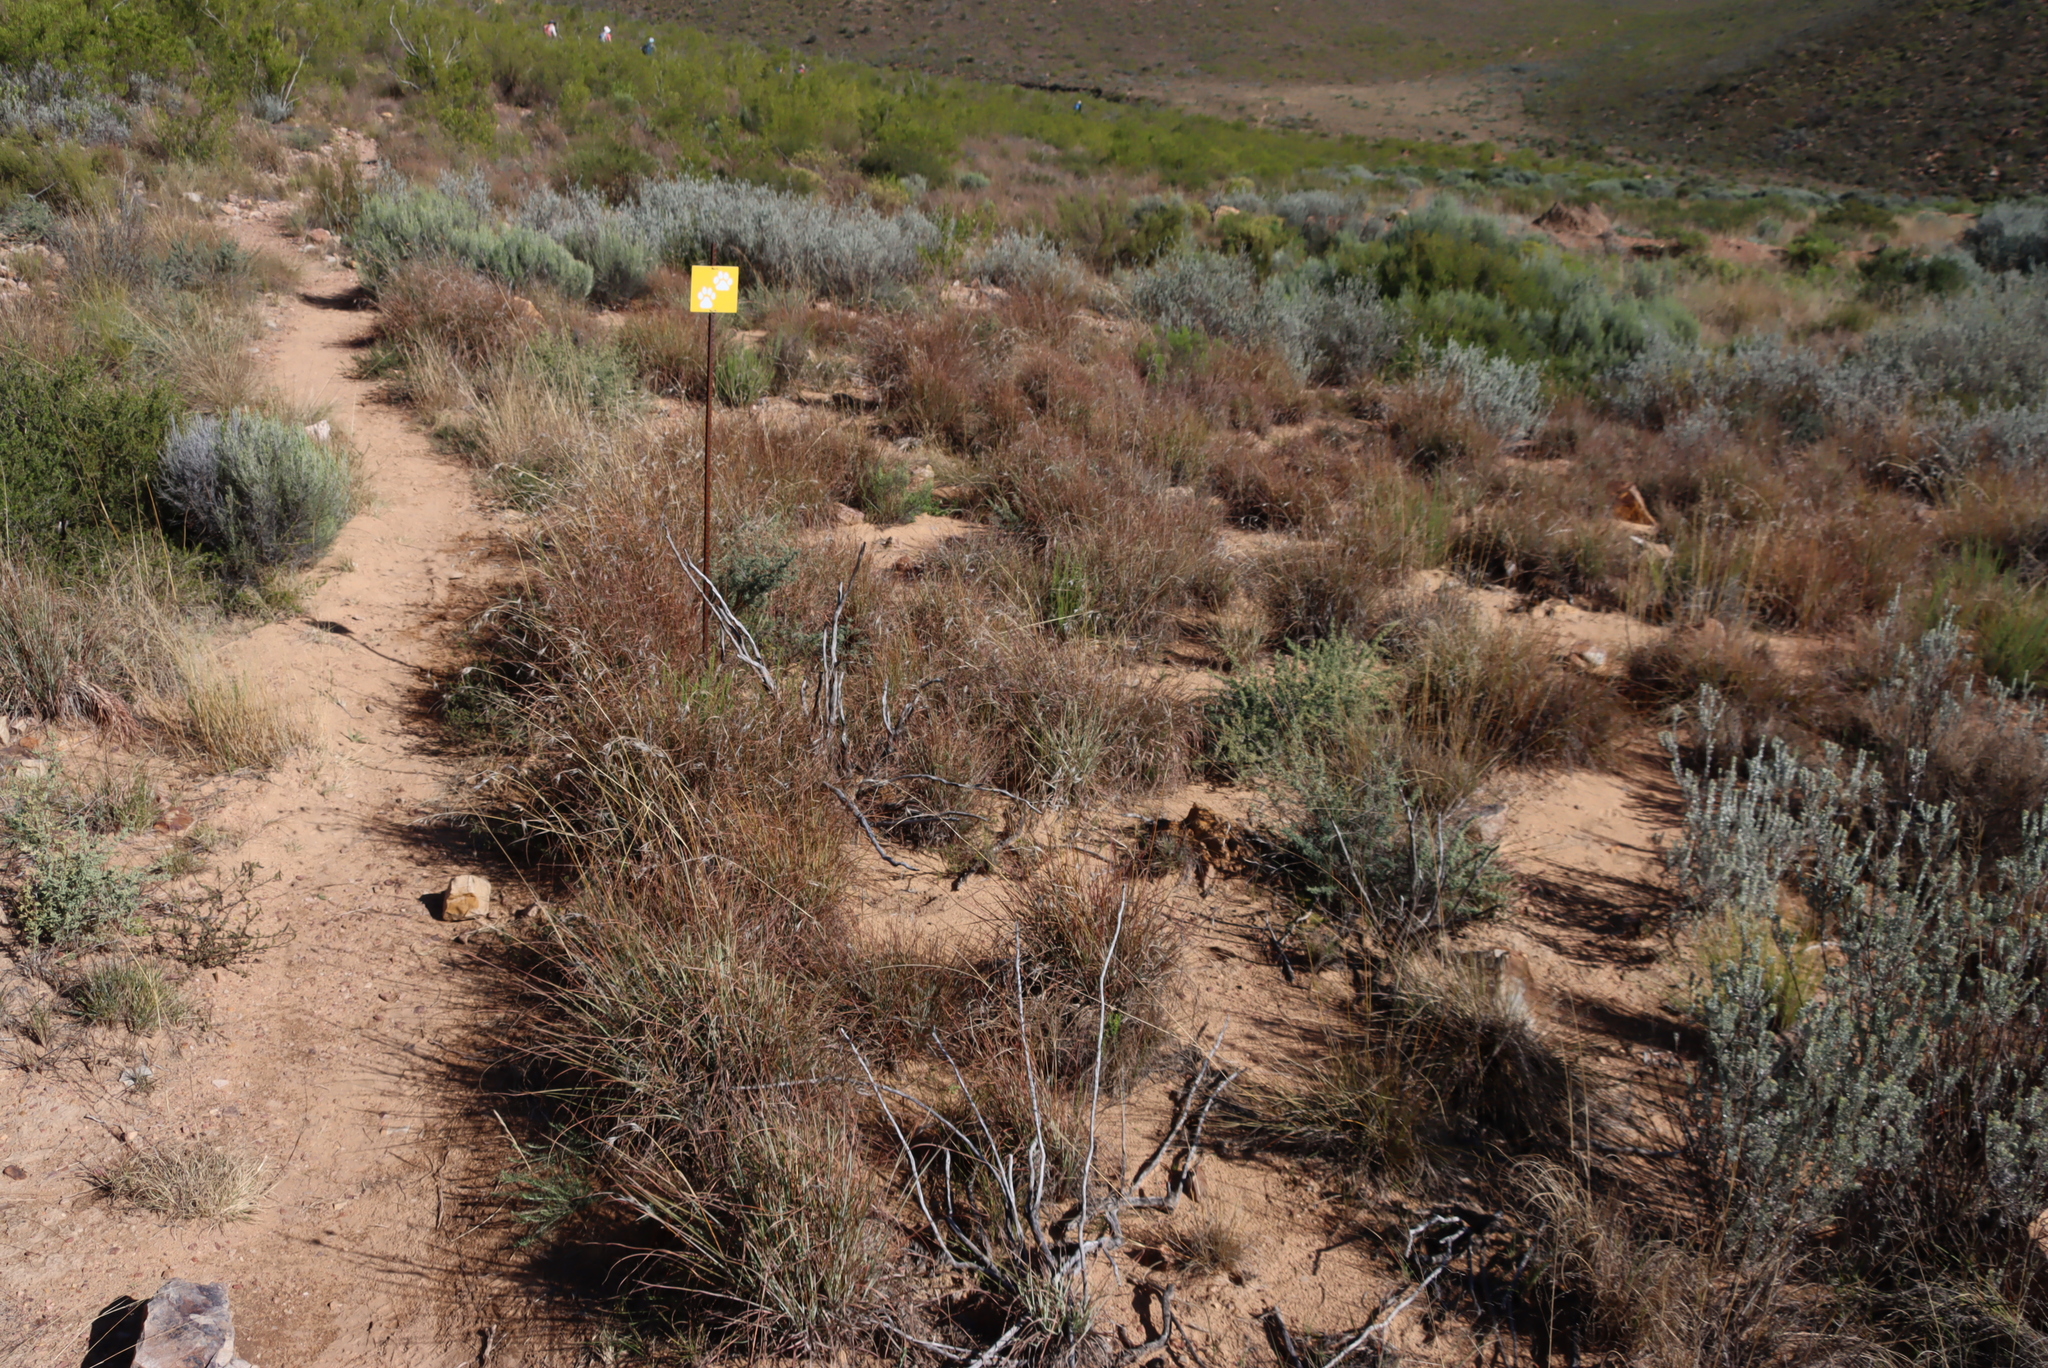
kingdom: Plantae
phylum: Tracheophyta
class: Liliopsida
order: Poales
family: Poaceae
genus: Themeda
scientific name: Themeda triandra
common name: Kangaroo grass
